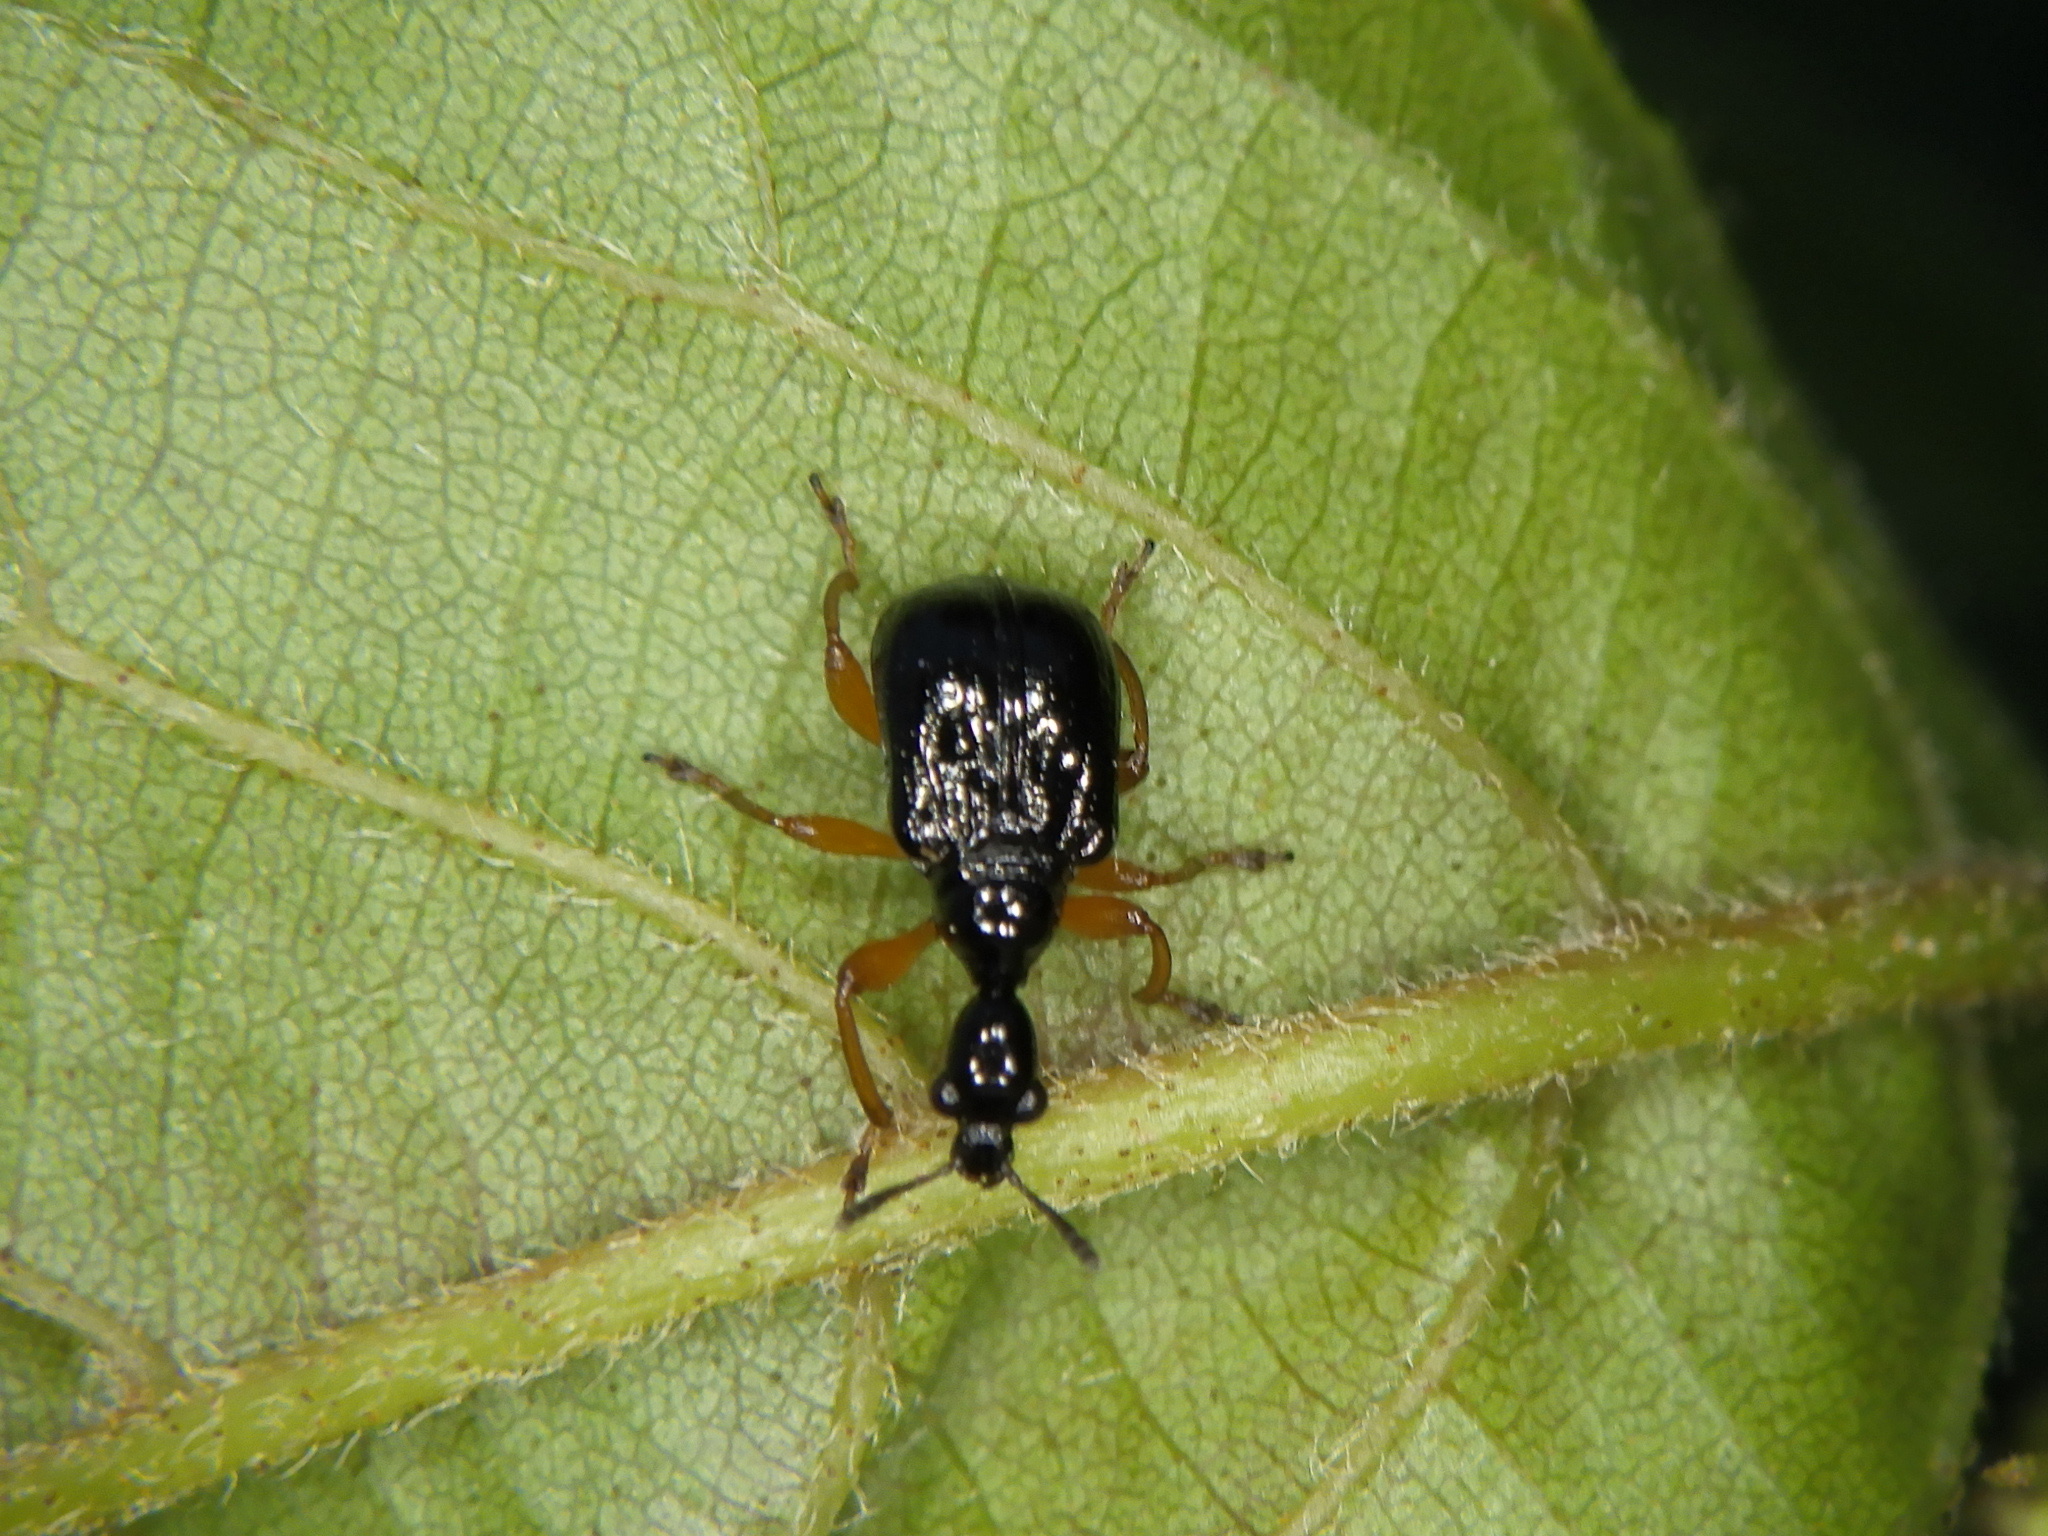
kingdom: Animalia
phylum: Arthropoda
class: Insecta
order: Coleoptera
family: Attelabidae
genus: Compsapoderus
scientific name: Compsapoderus erythrogaster
